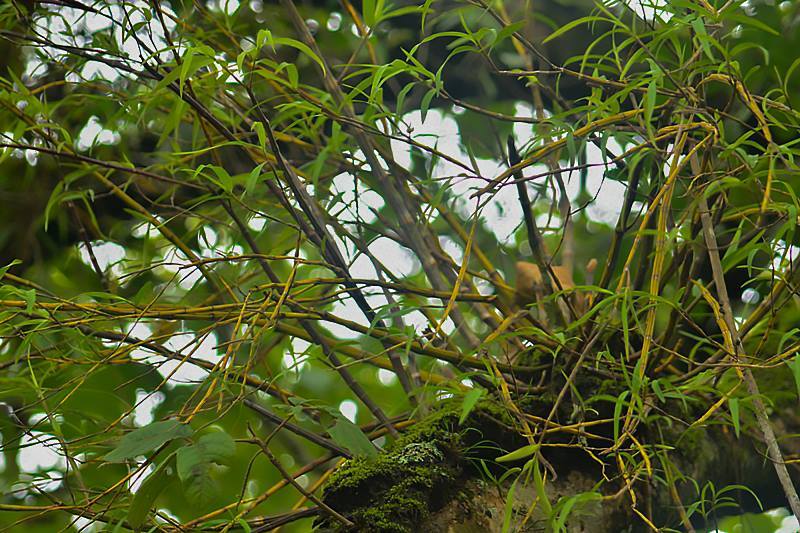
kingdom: Plantae
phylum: Tracheophyta
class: Liliopsida
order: Asparagales
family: Orchidaceae
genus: Dendrobium
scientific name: Dendrobium herbaceum
